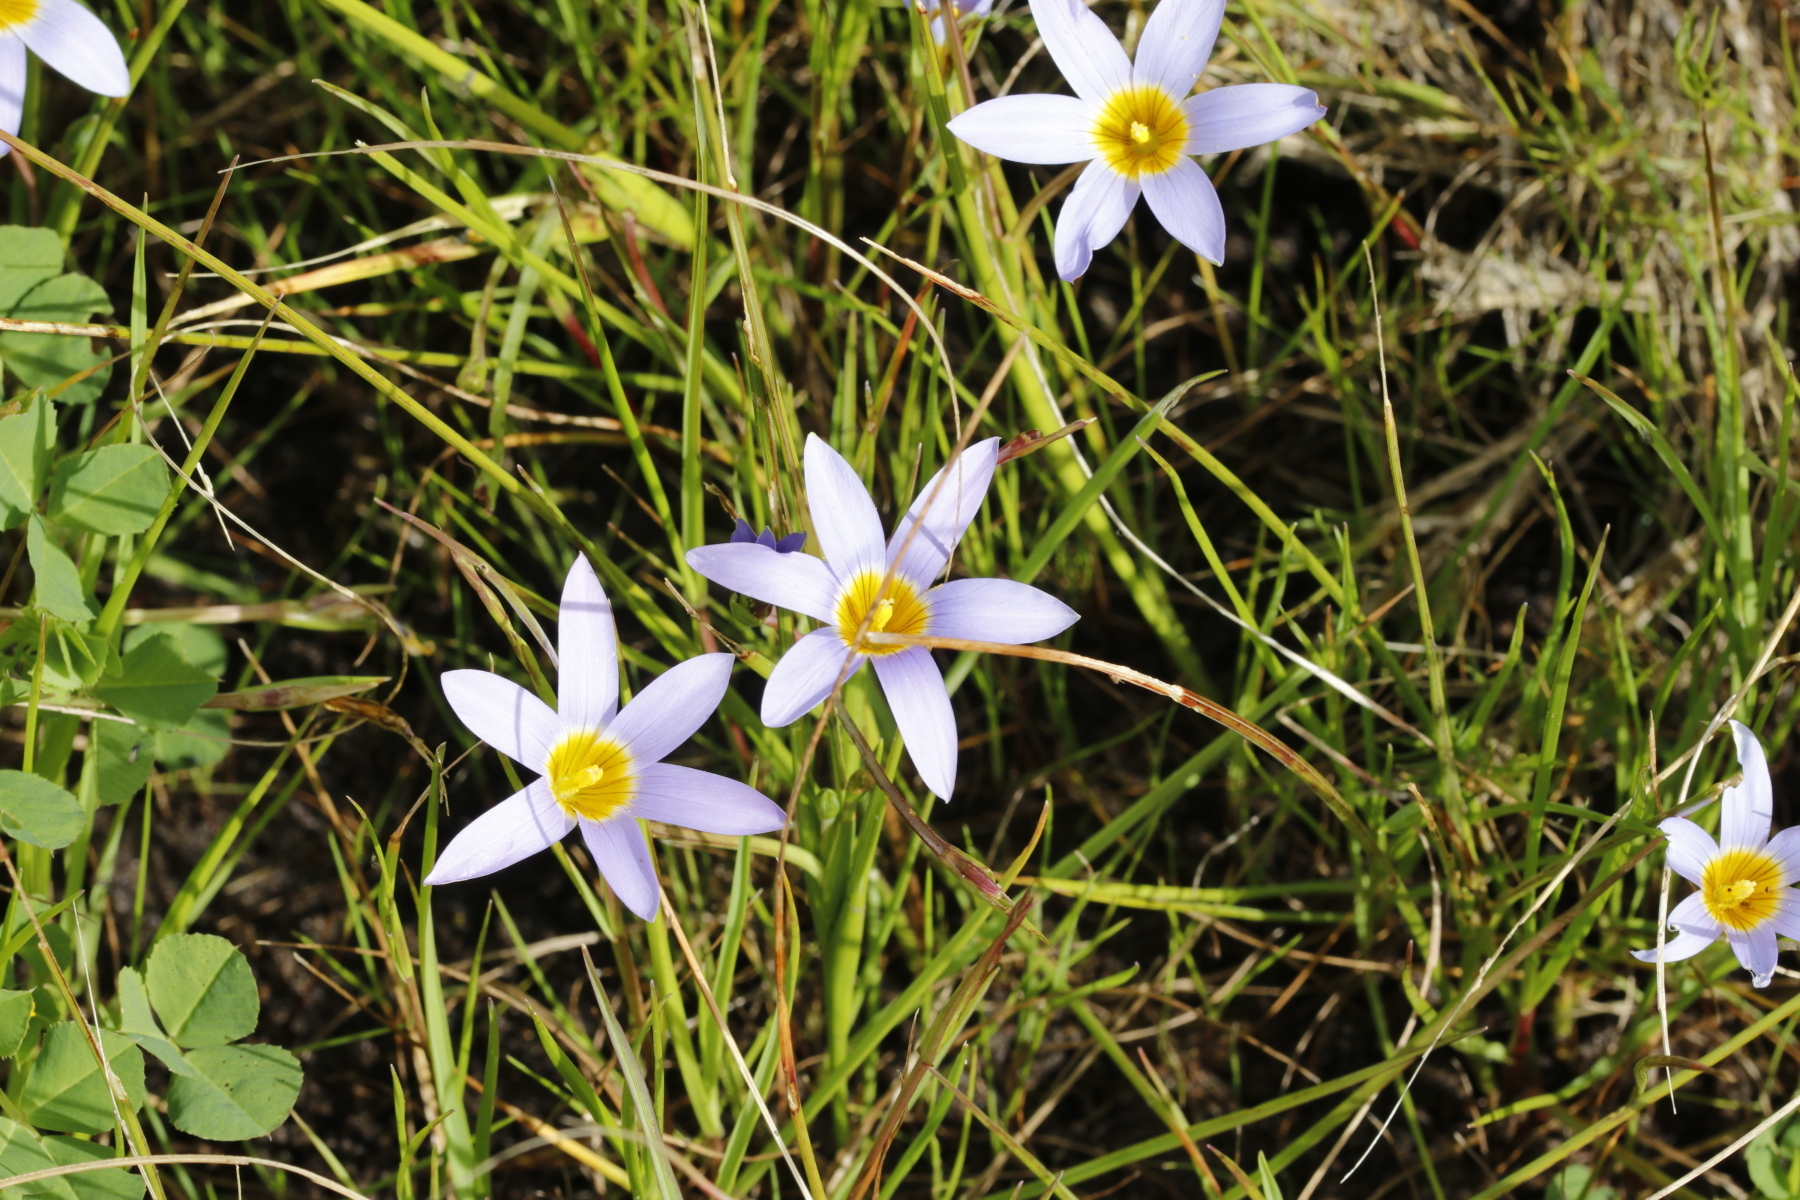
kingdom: Plantae
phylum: Tracheophyta
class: Liliopsida
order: Asparagales
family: Iridaceae
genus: Romulea
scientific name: Romulea tabularis
